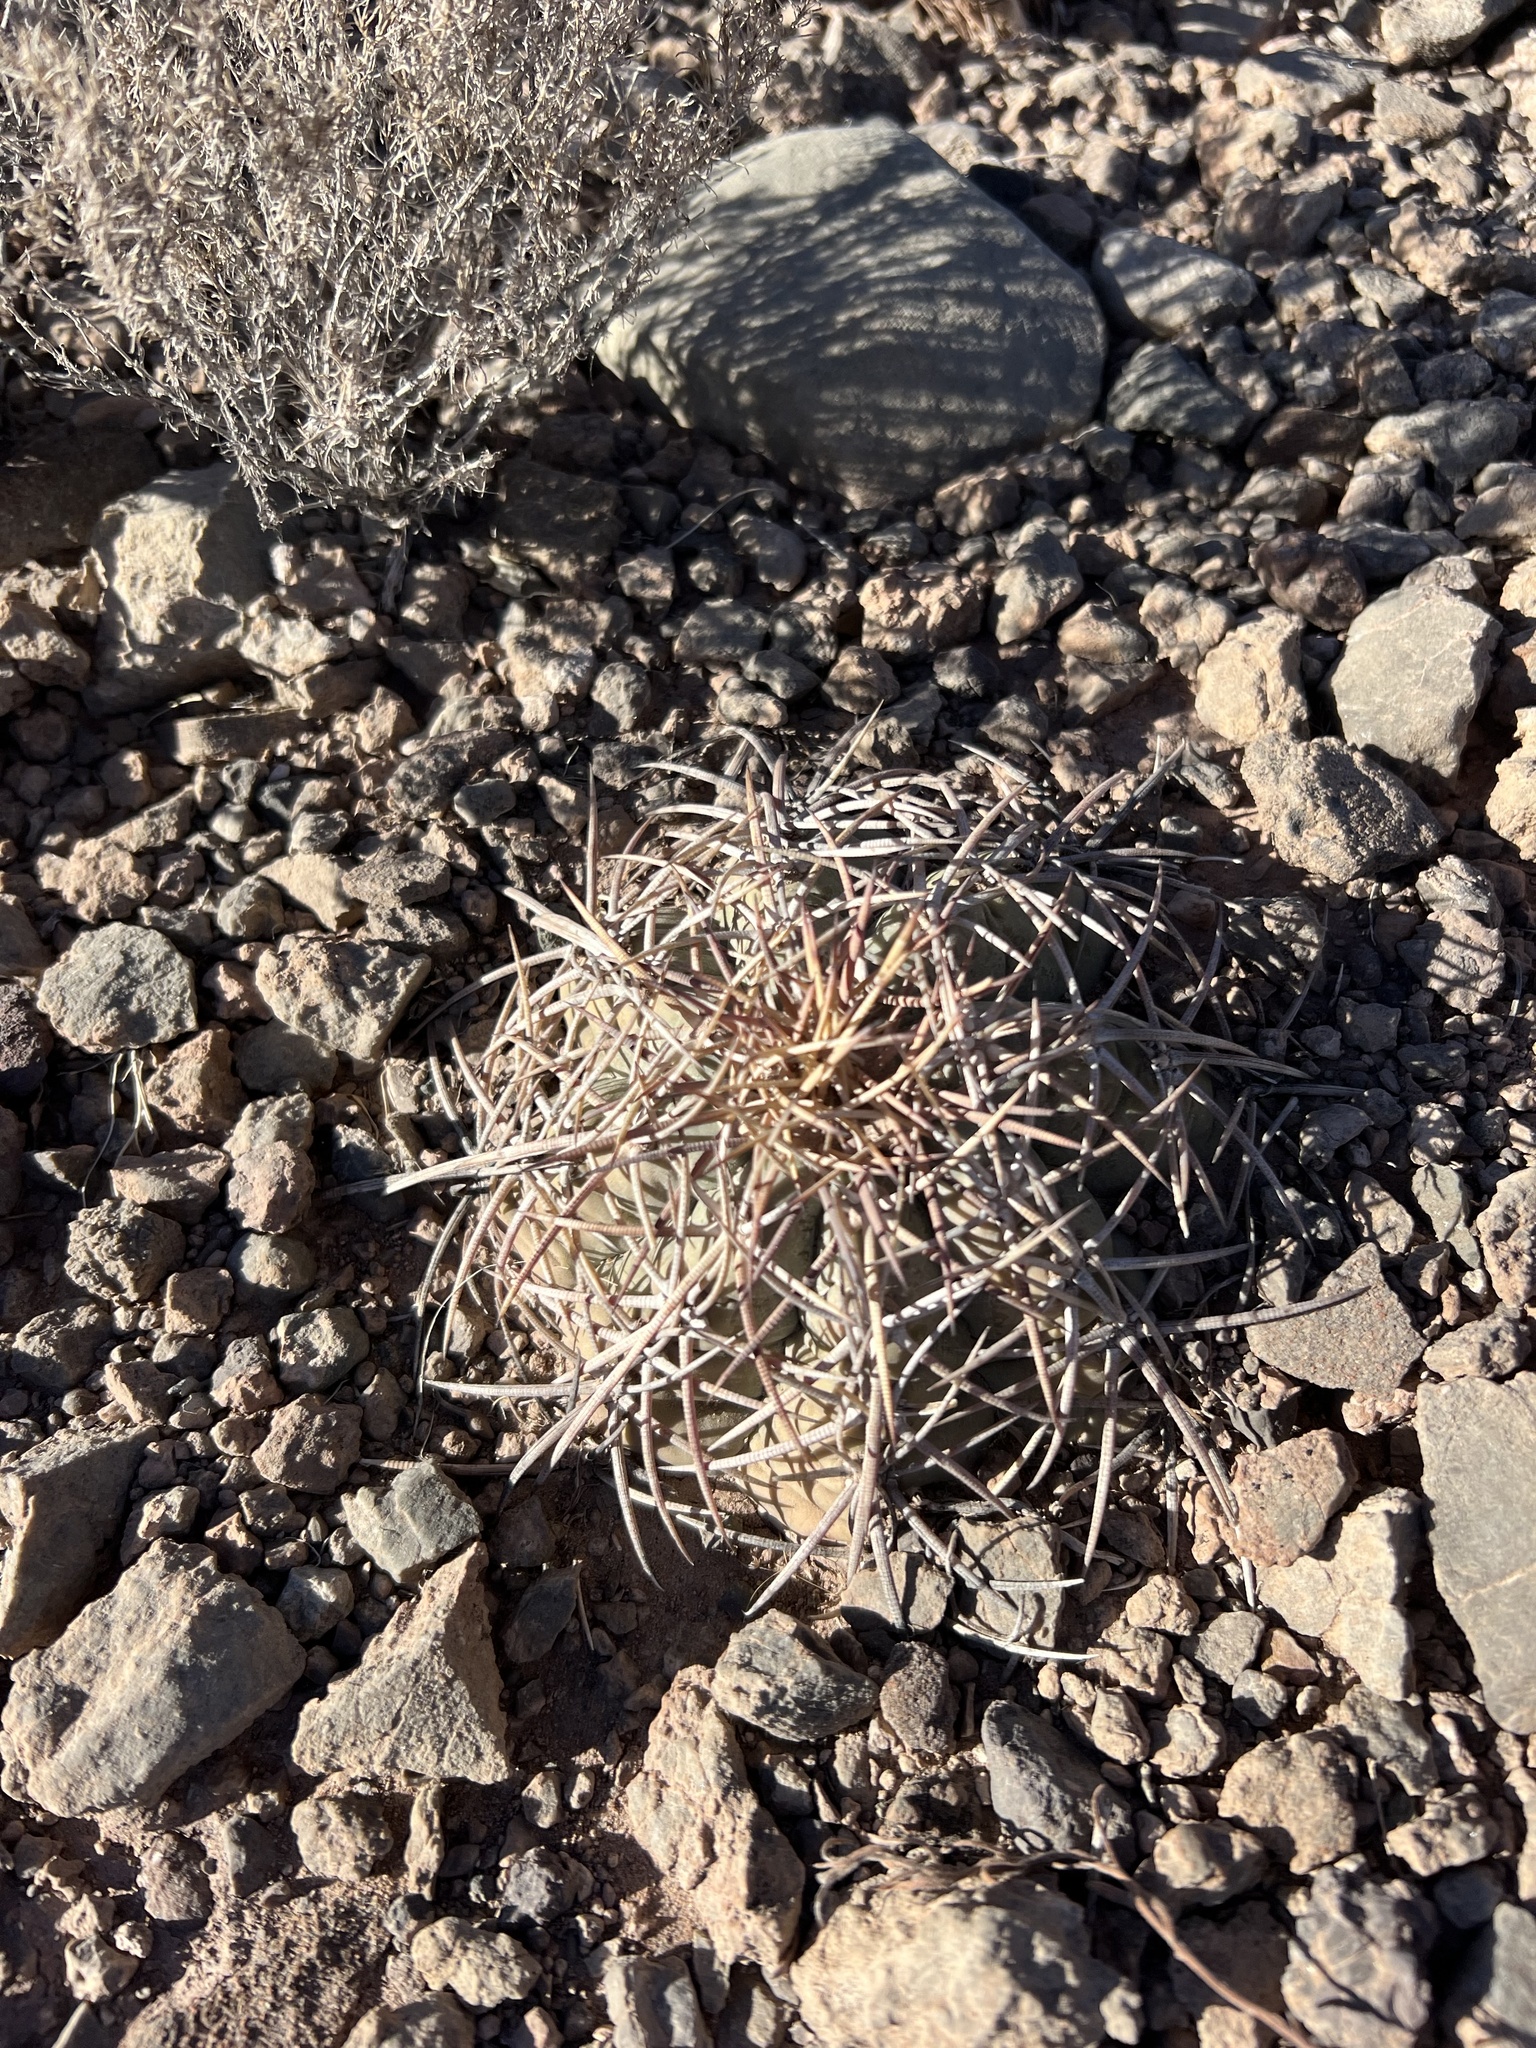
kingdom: Plantae
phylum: Tracheophyta
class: Magnoliopsida
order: Caryophyllales
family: Cactaceae
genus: Echinocactus
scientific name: Echinocactus horizonthalonius
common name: Devilshead
